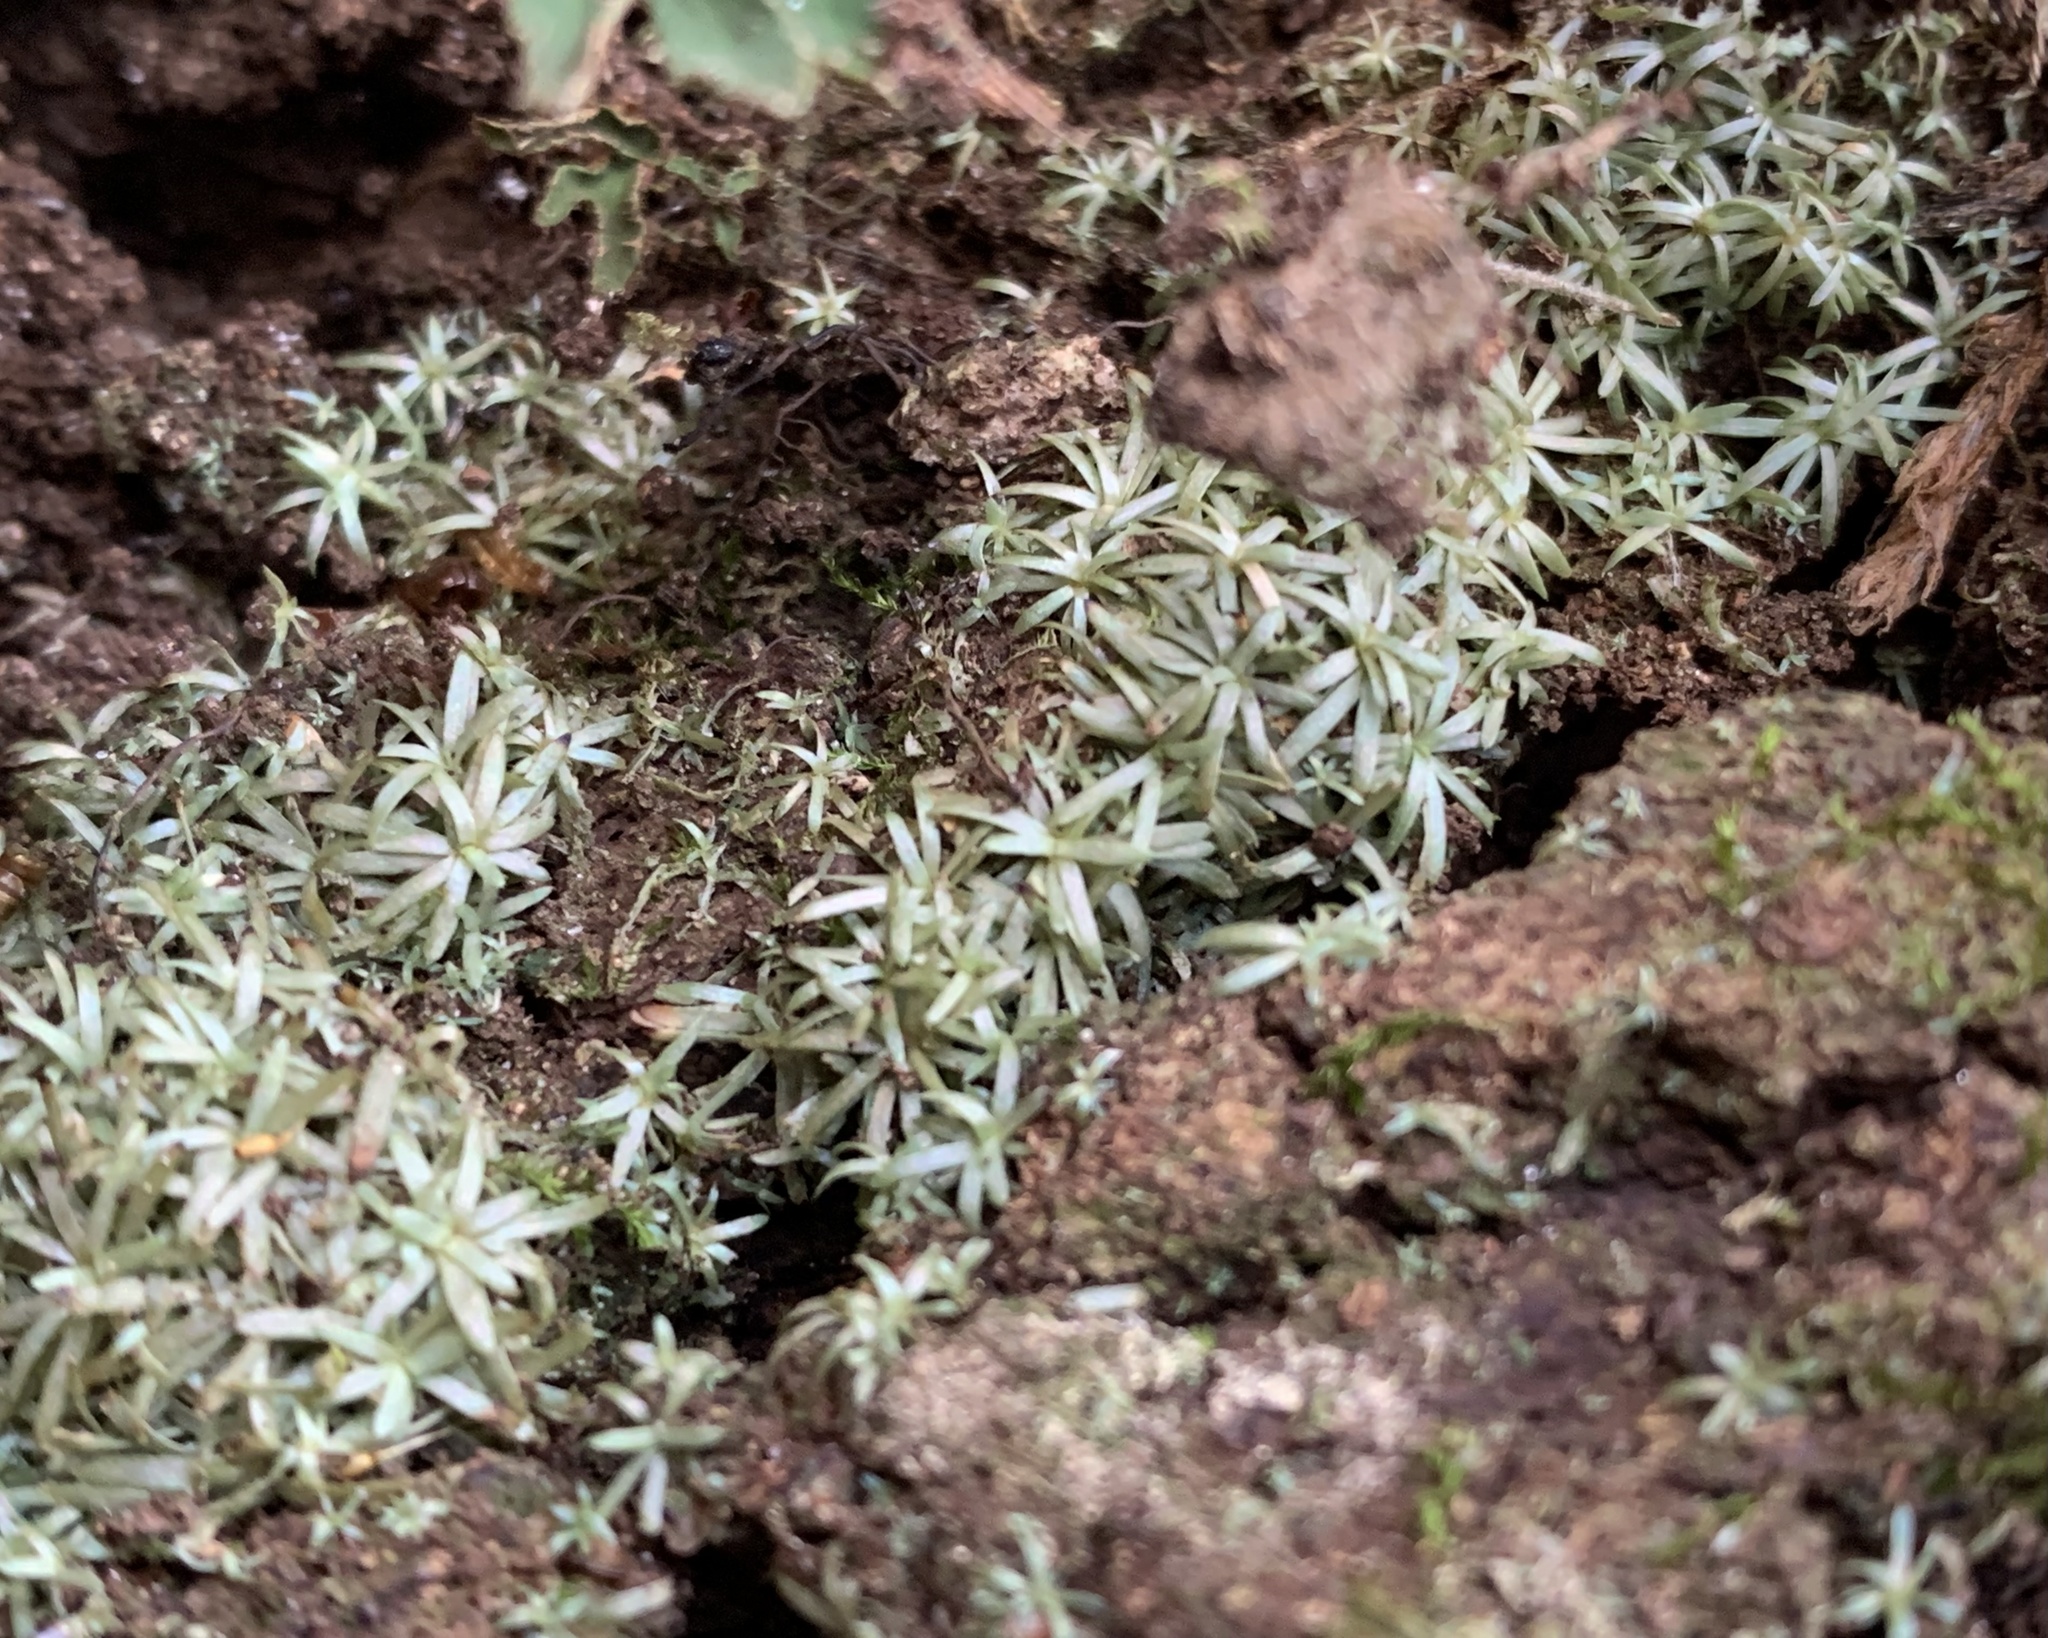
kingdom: Plantae
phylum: Bryophyta
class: Bryopsida
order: Dicranales
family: Octoblepharaceae
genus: Octoblepharum
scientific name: Octoblepharum albidum
